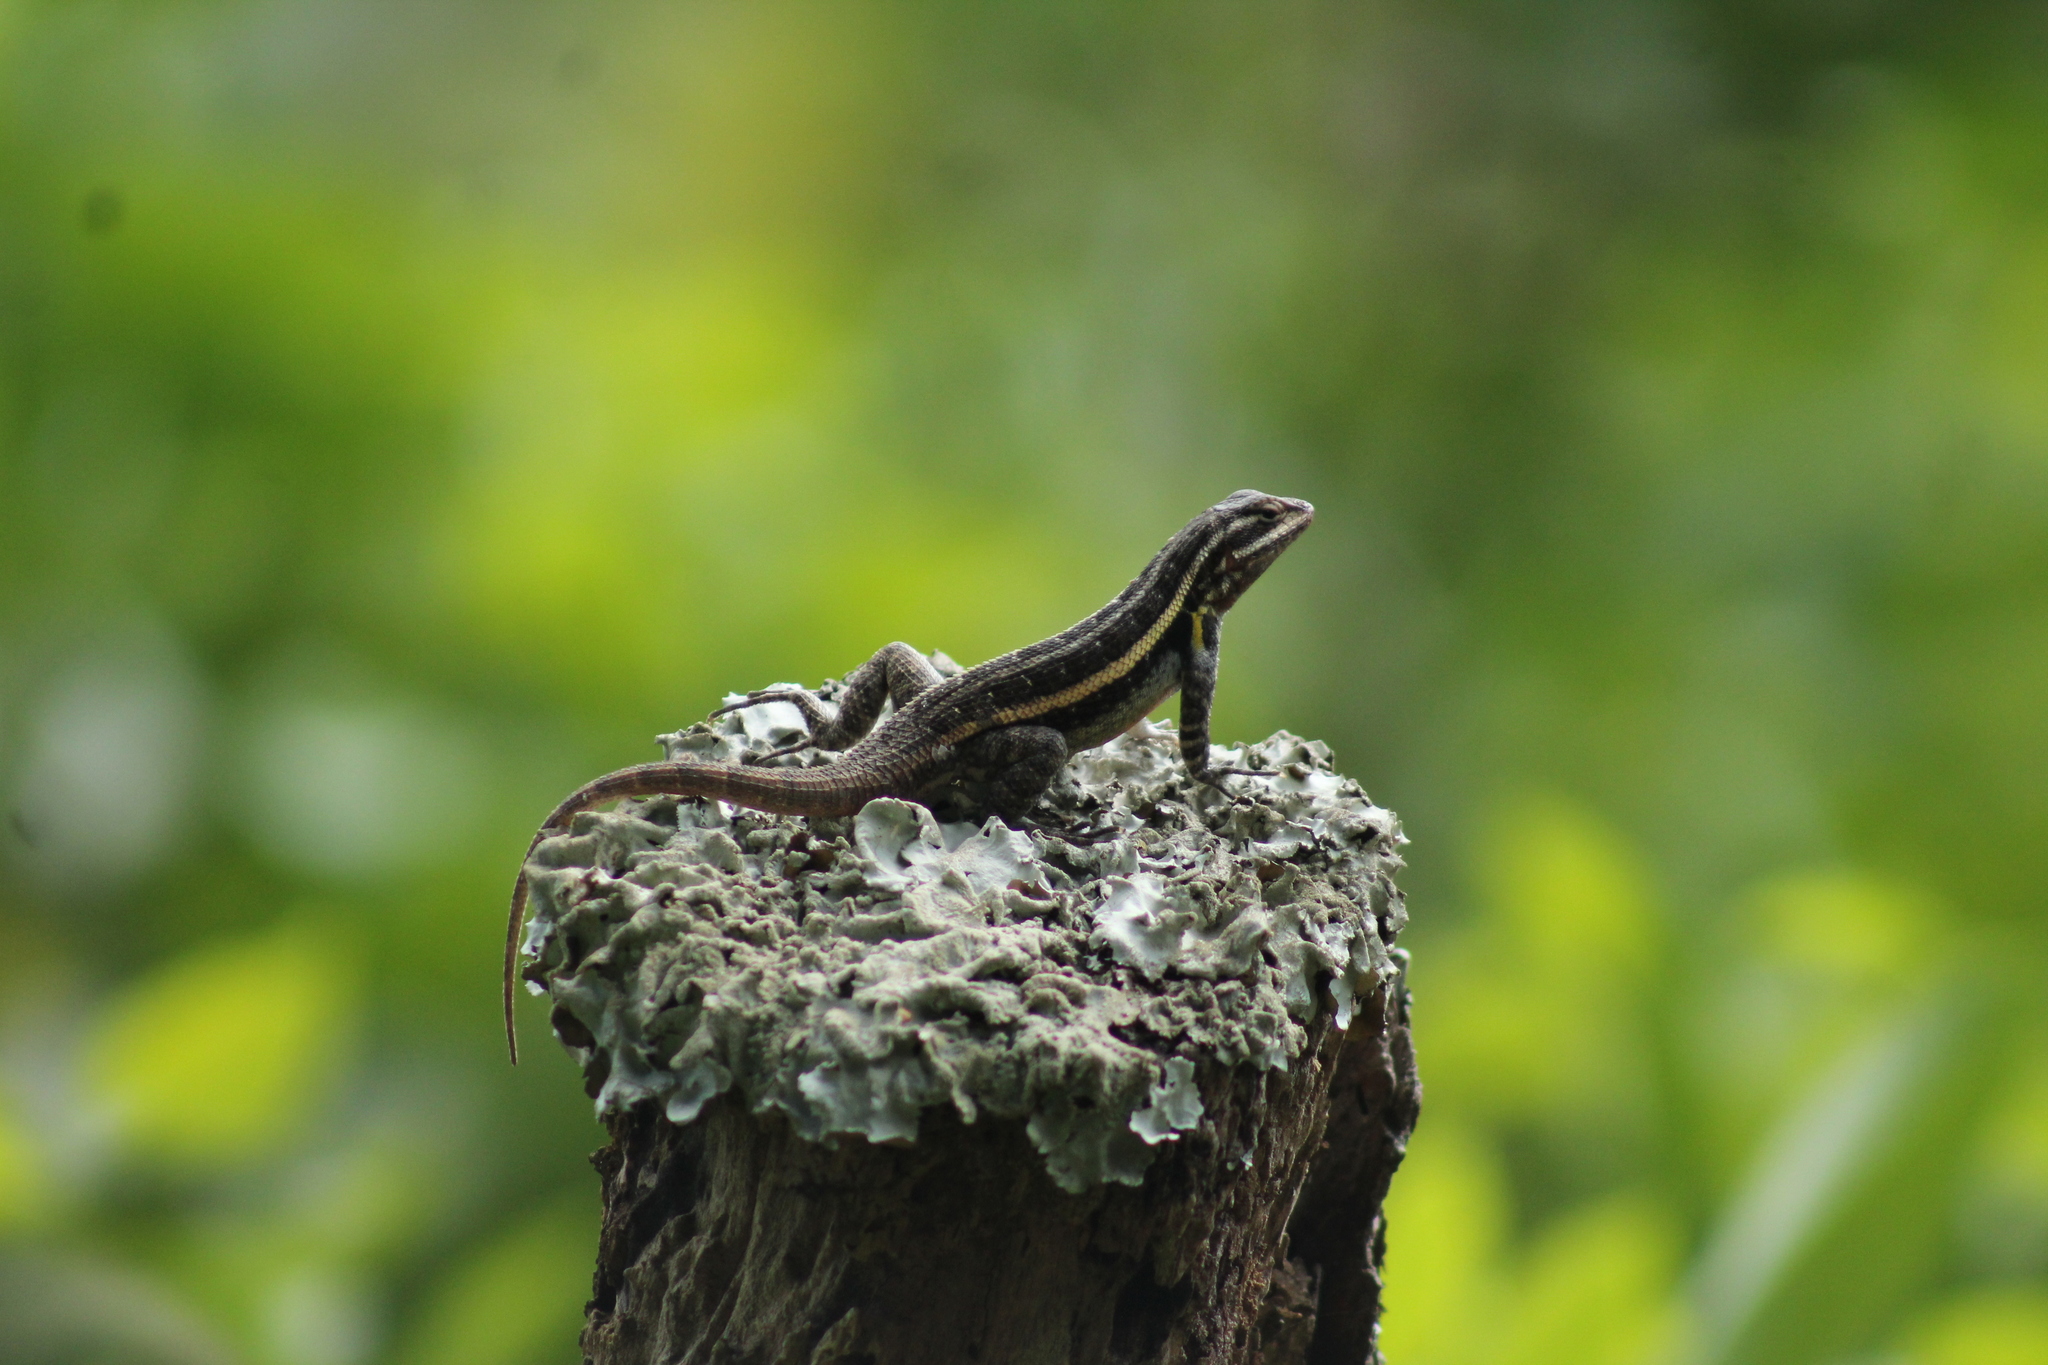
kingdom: Animalia
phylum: Chordata
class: Squamata
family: Phrynosomatidae
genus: Sceloporus
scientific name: Sceloporus variabilis
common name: Rosebelly lizard
